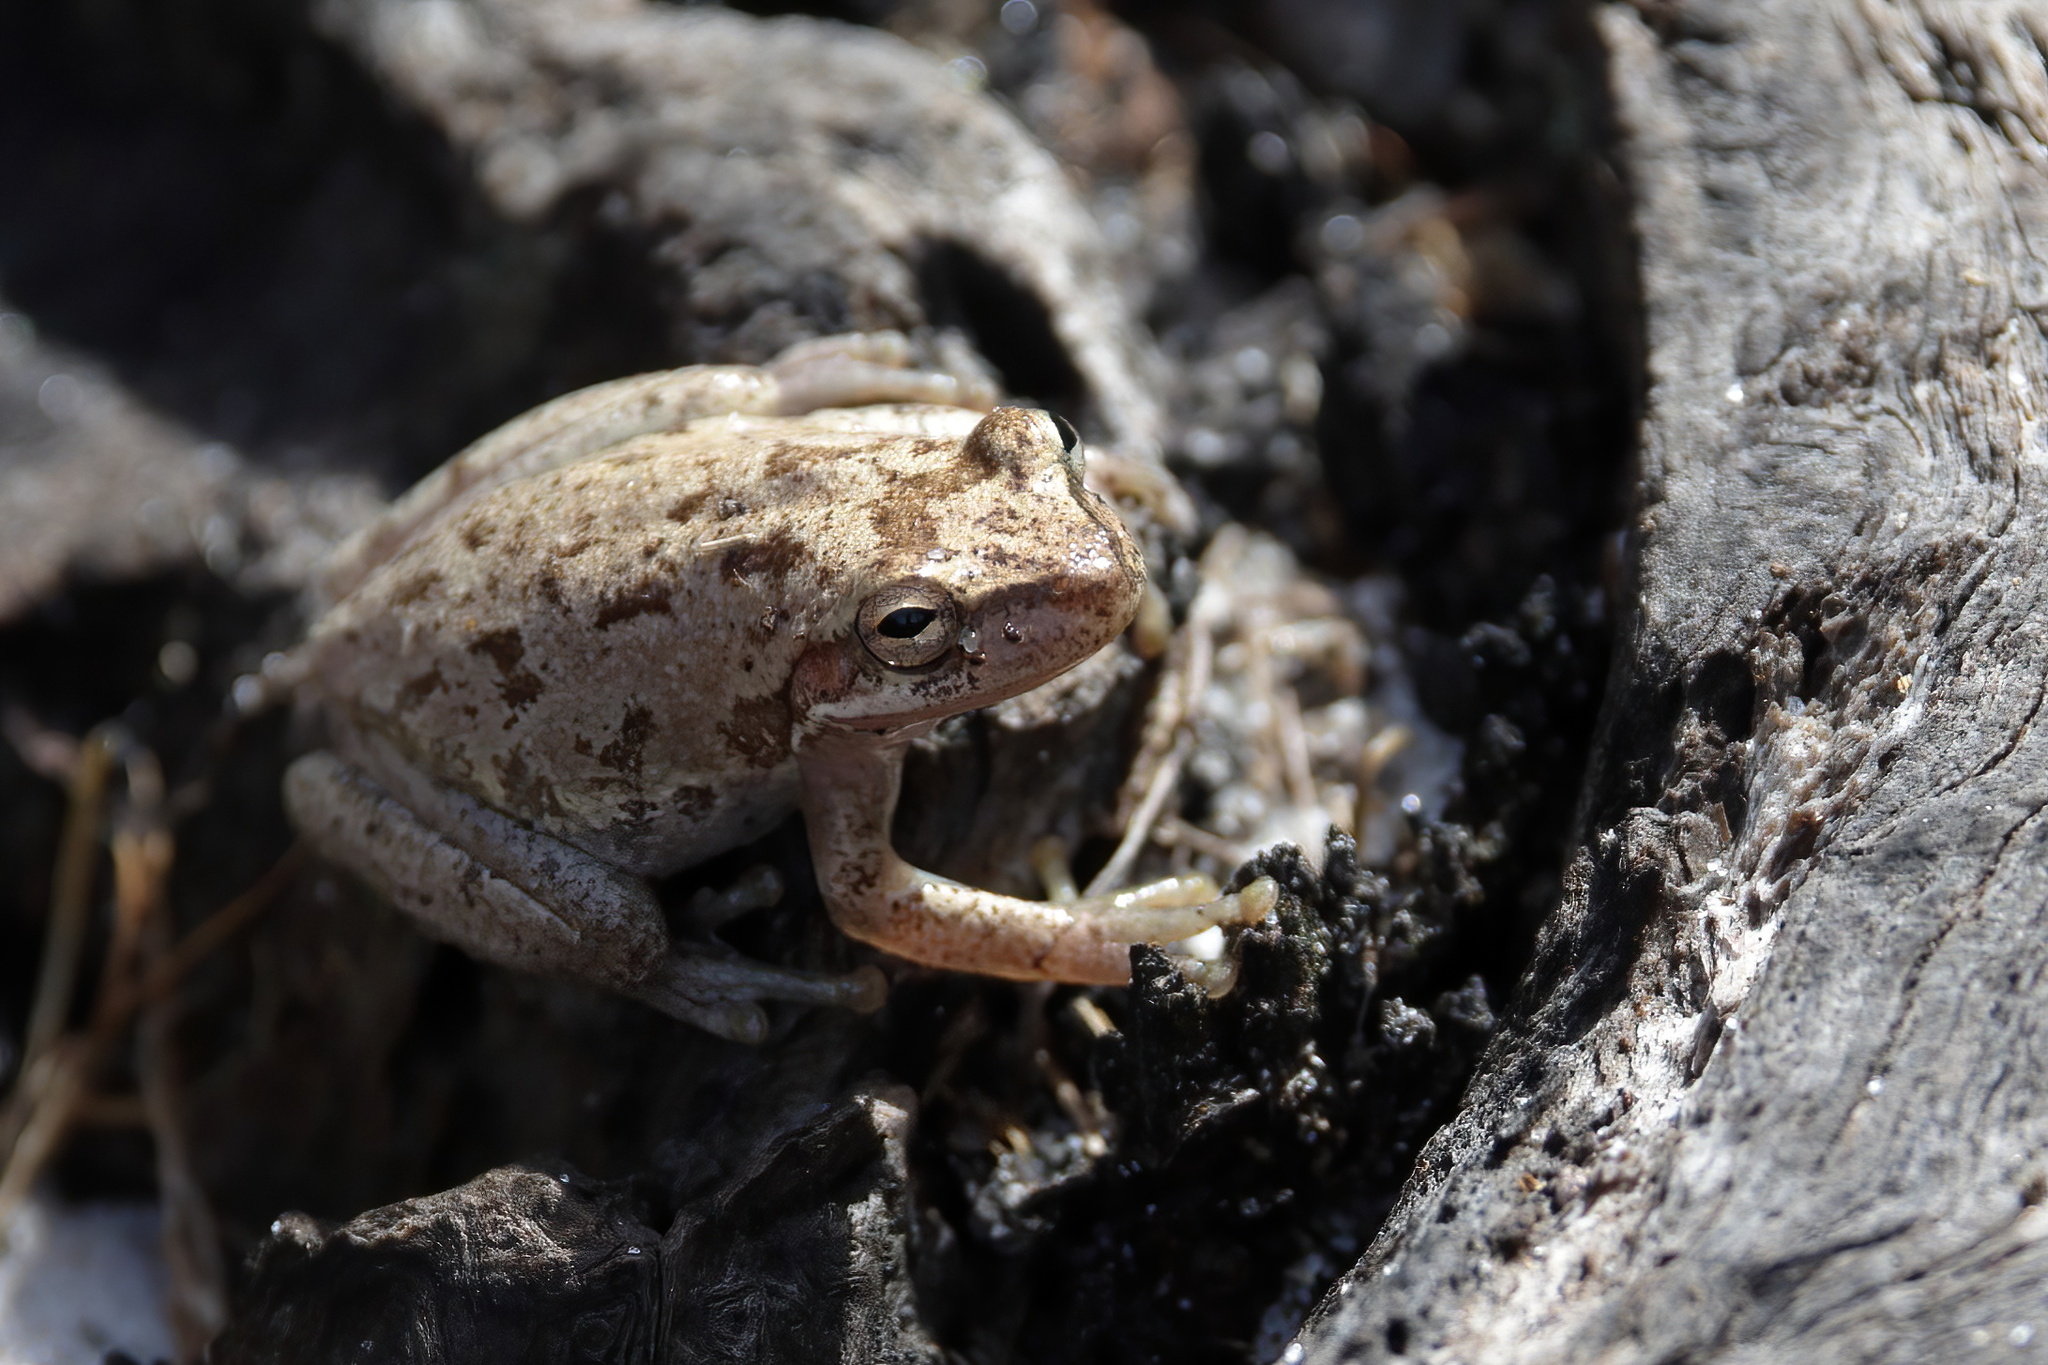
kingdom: Animalia
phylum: Chordata
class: Amphibia
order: Anura
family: Hylidae
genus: Dryophytes
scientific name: Dryophytes squirellus
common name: Squirrel treefrog
